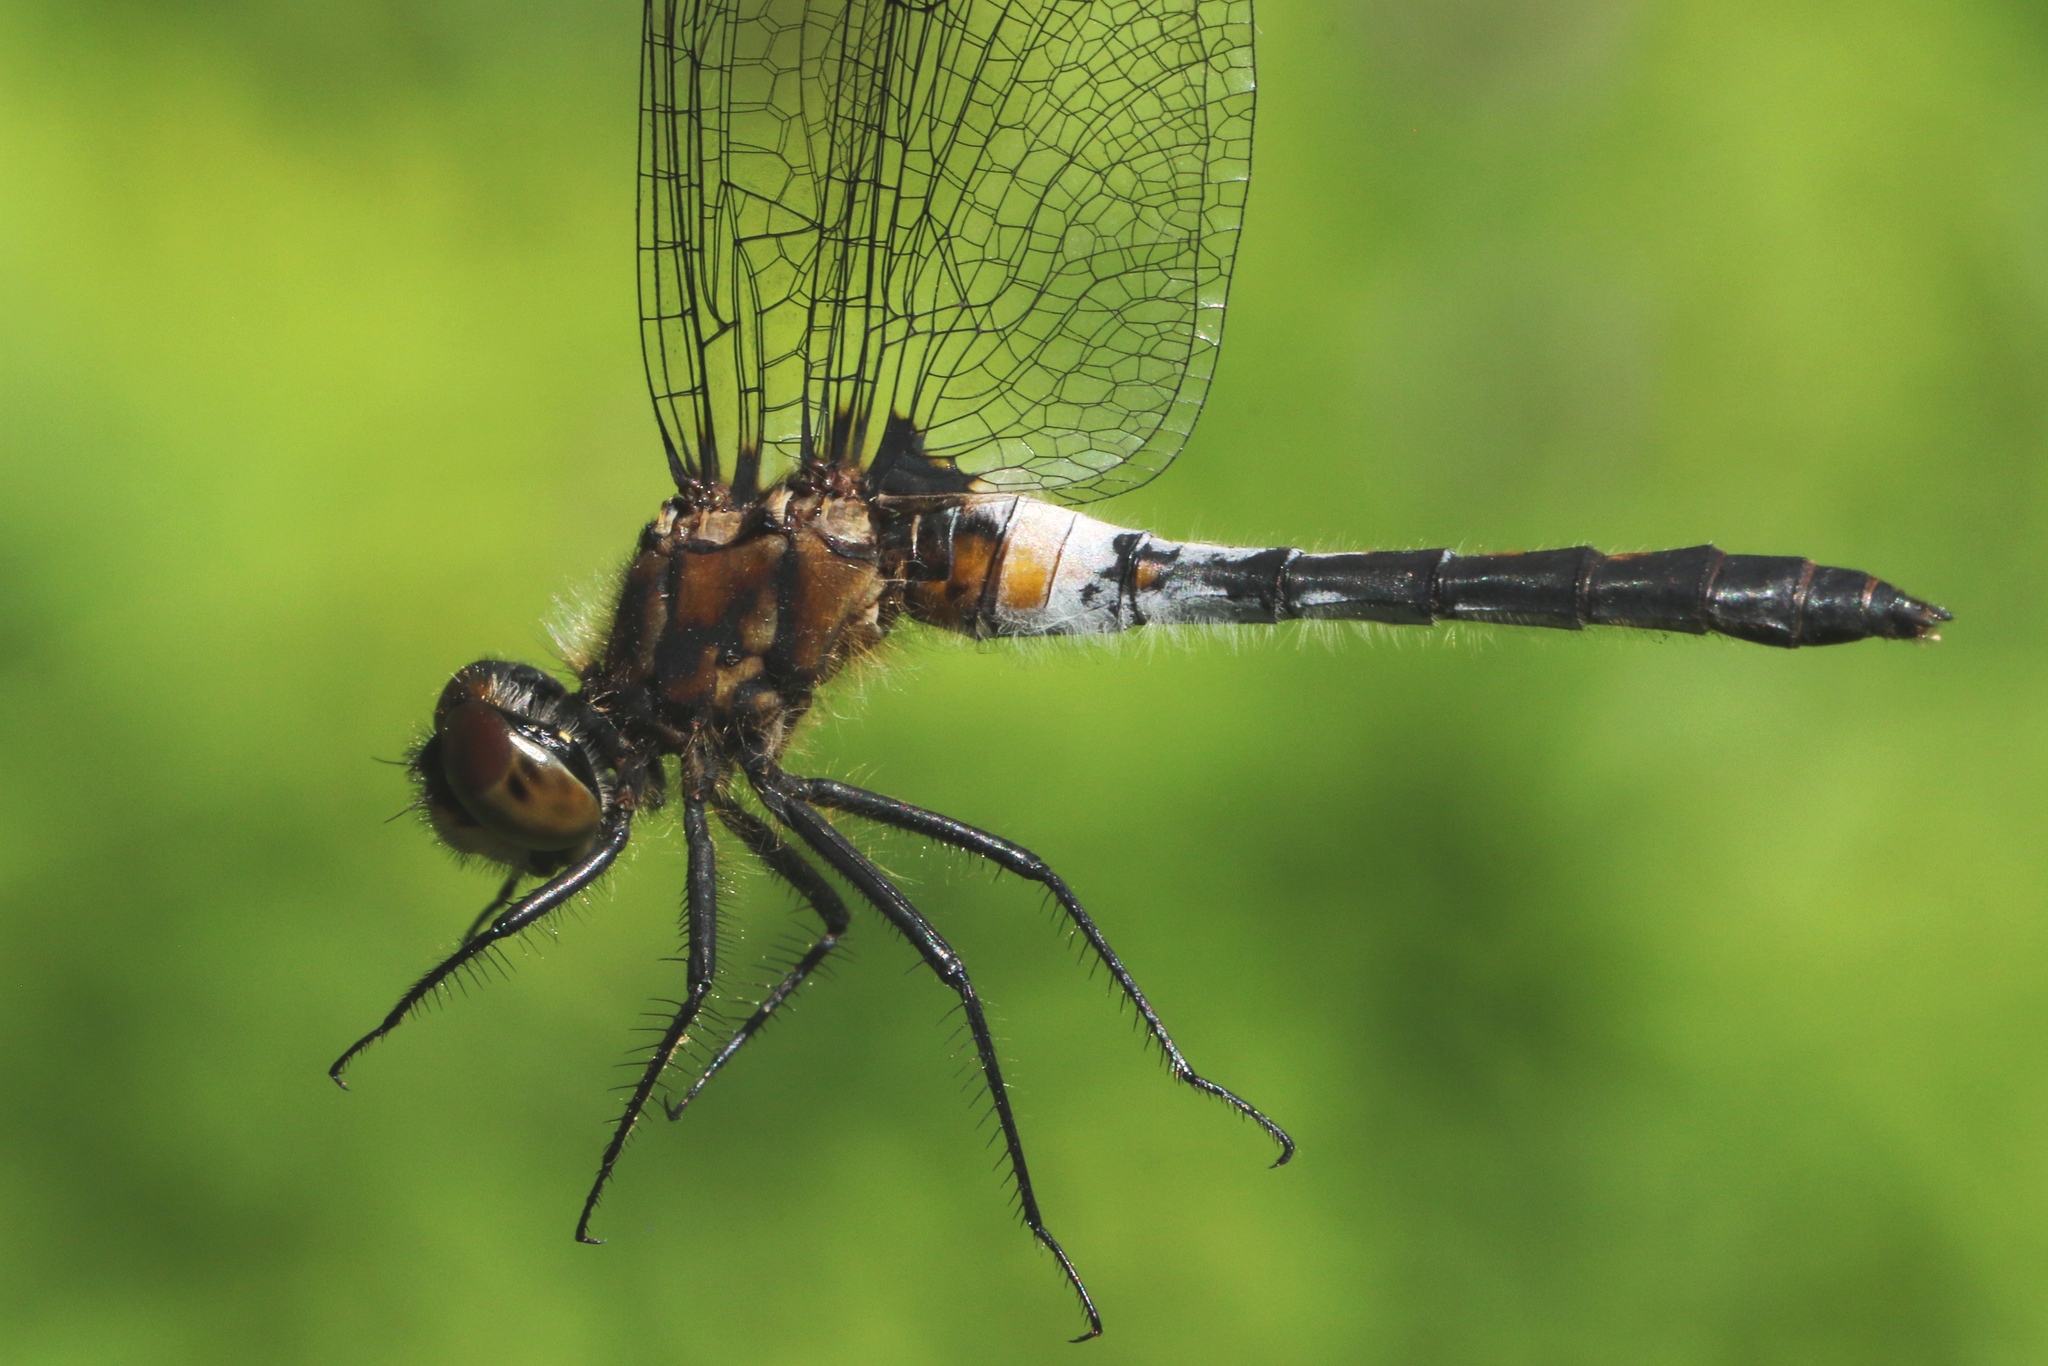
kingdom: Animalia
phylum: Arthropoda
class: Insecta
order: Odonata
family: Libellulidae
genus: Leucorrhinia
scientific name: Leucorrhinia proxima
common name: Belted whiteface
